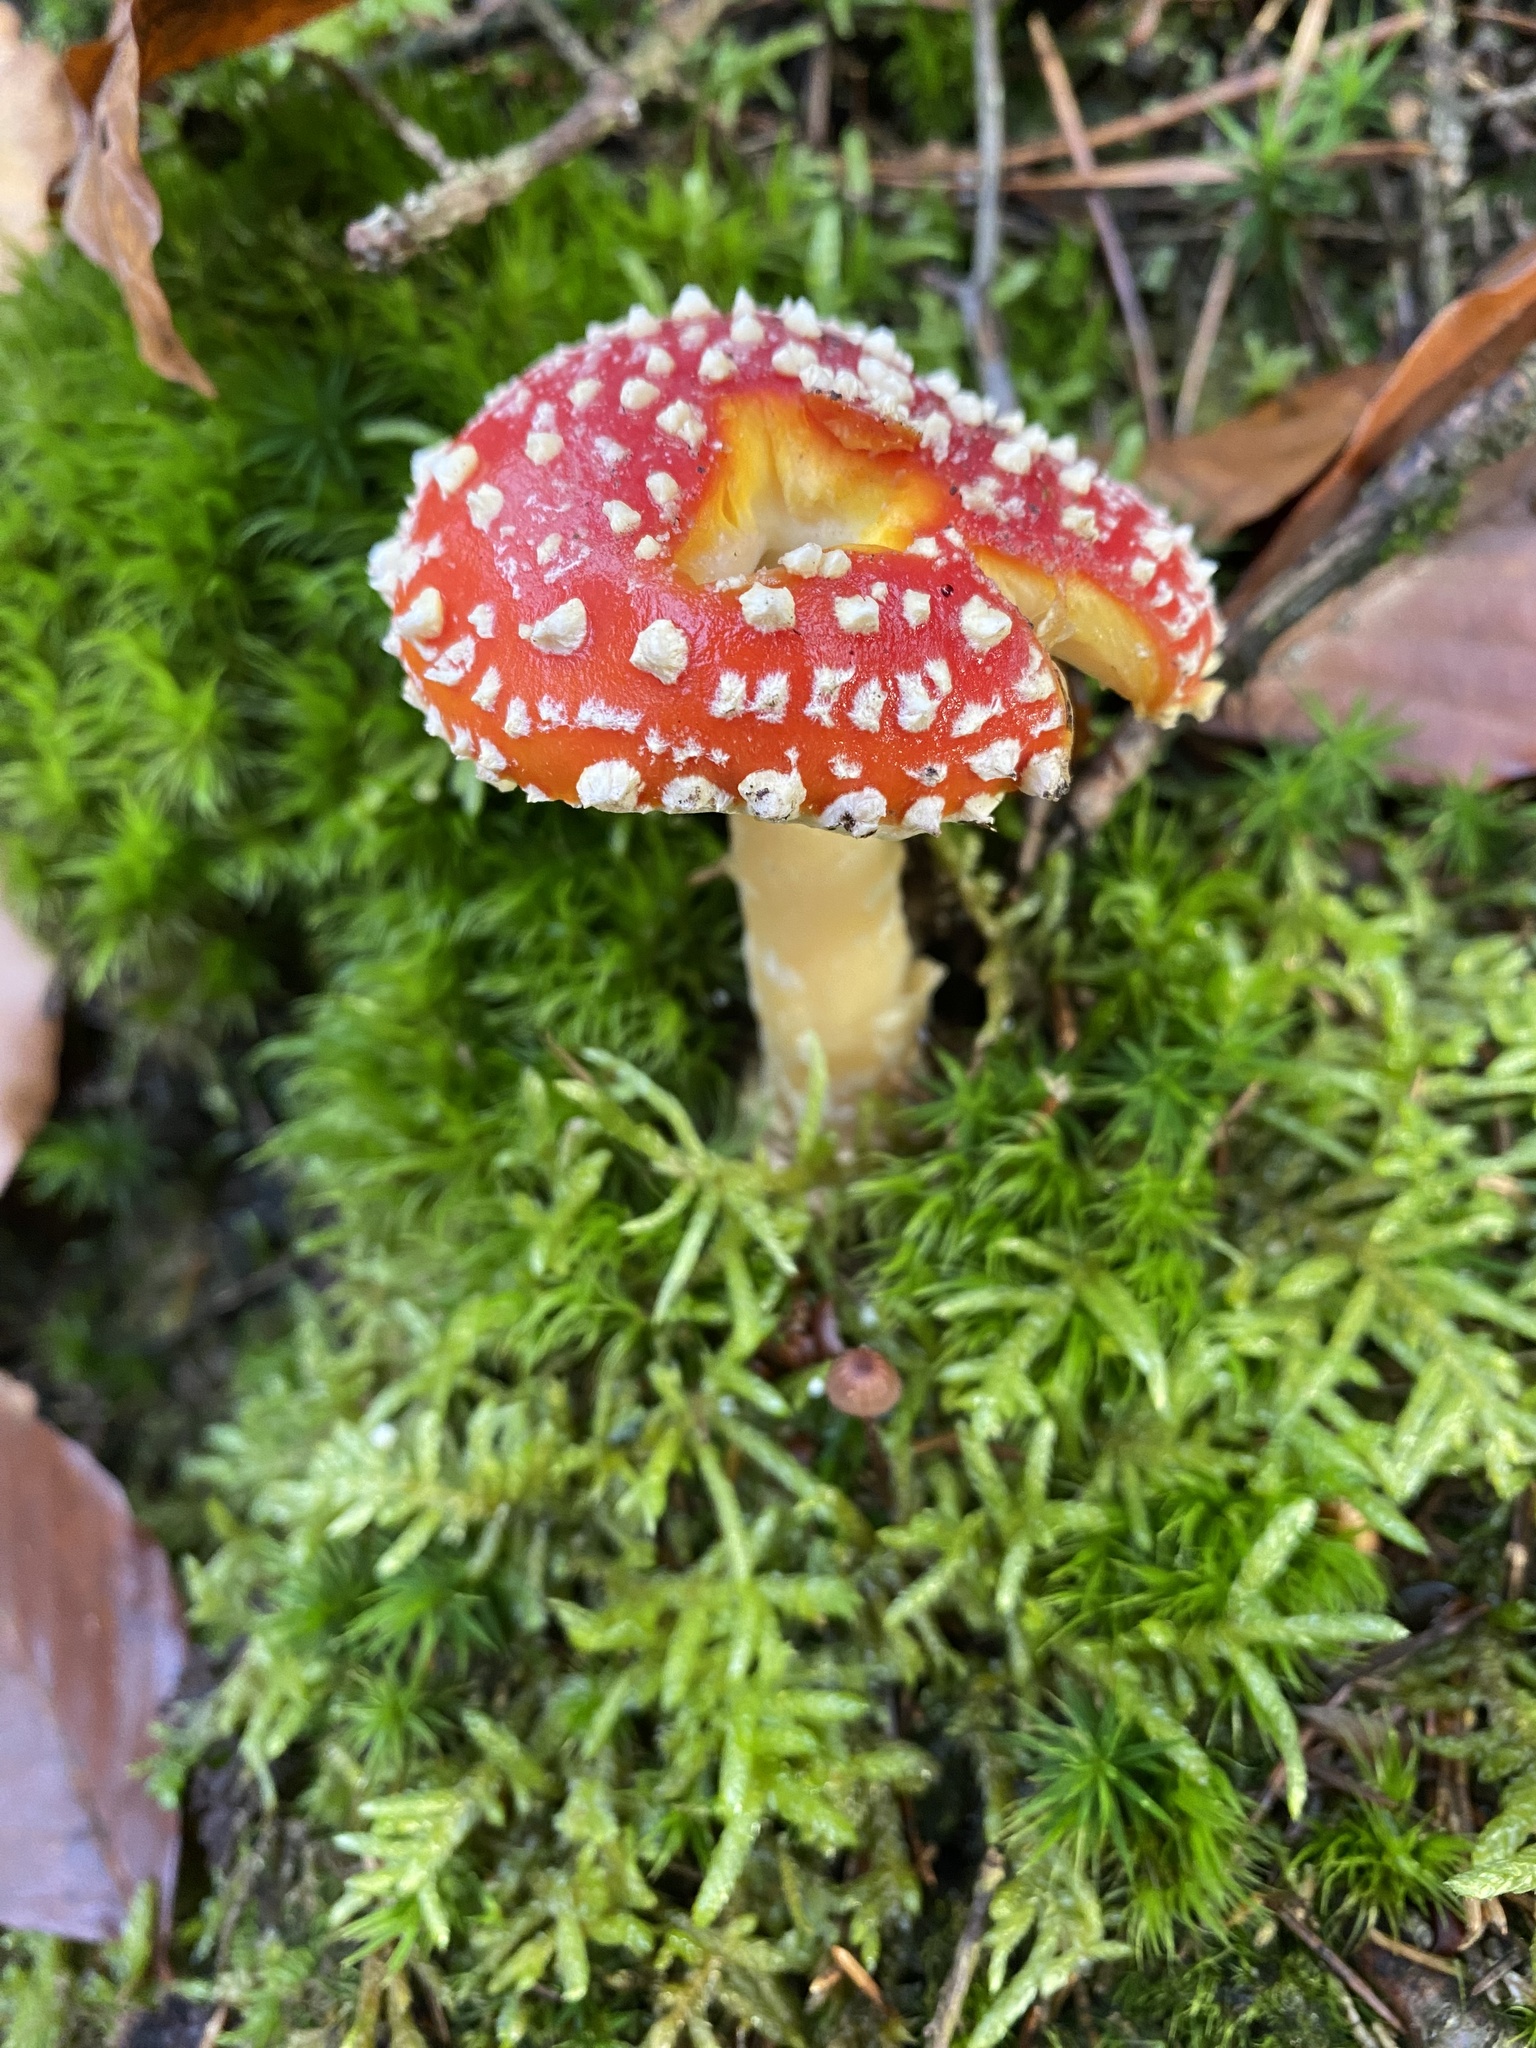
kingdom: Fungi
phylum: Basidiomycota
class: Agaricomycetes
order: Agaricales
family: Amanitaceae
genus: Amanita
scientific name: Amanita muscaria
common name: Fly agaric
